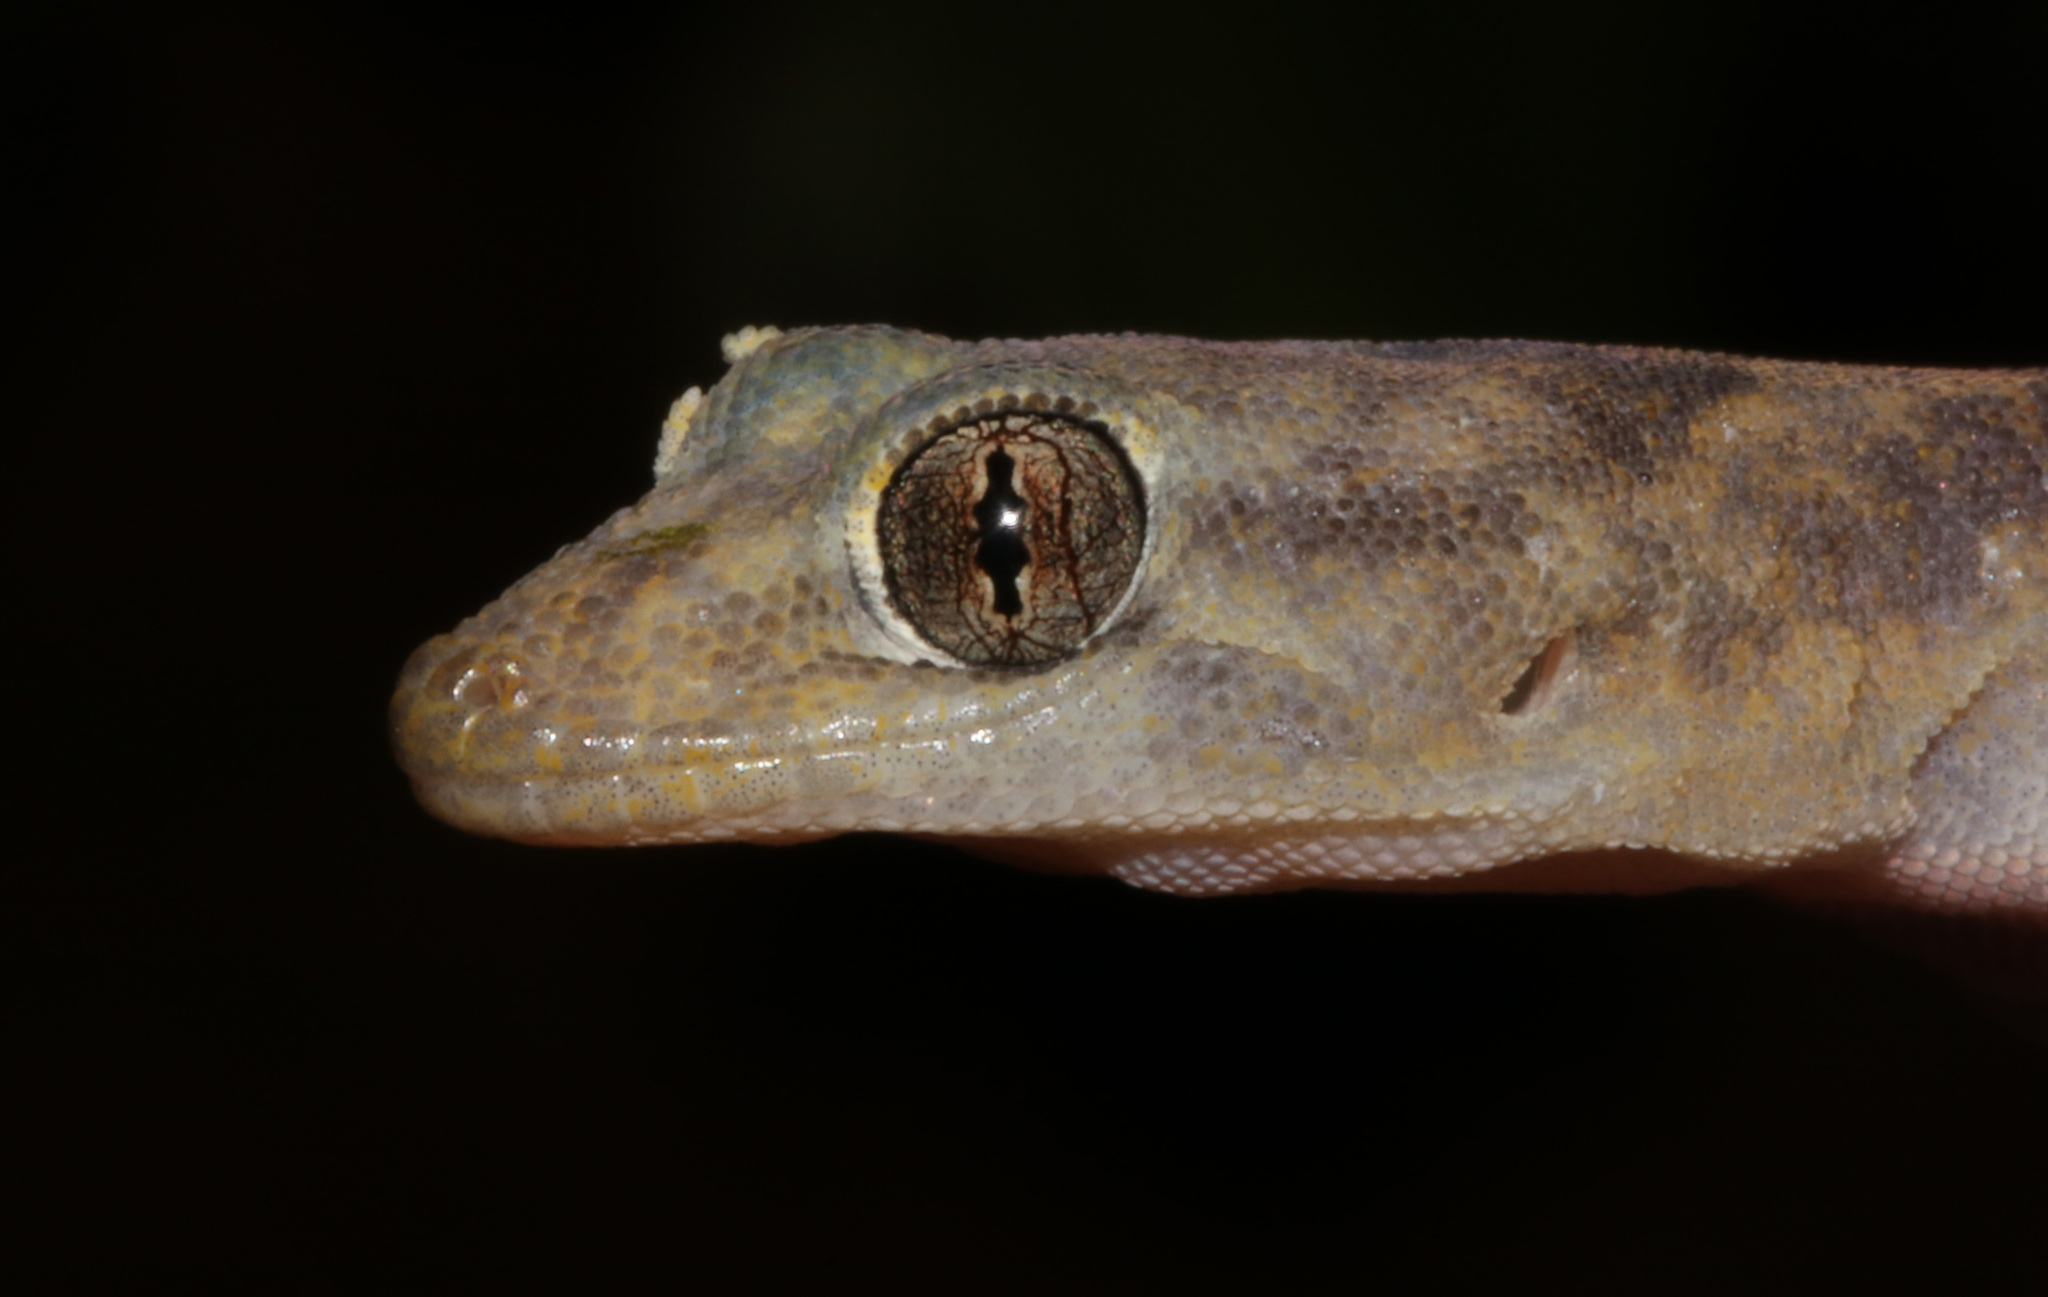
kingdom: Animalia
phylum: Chordata
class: Squamata
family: Gekkonidae
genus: Afroedura
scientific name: Afroedura africana
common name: African rock gecko
